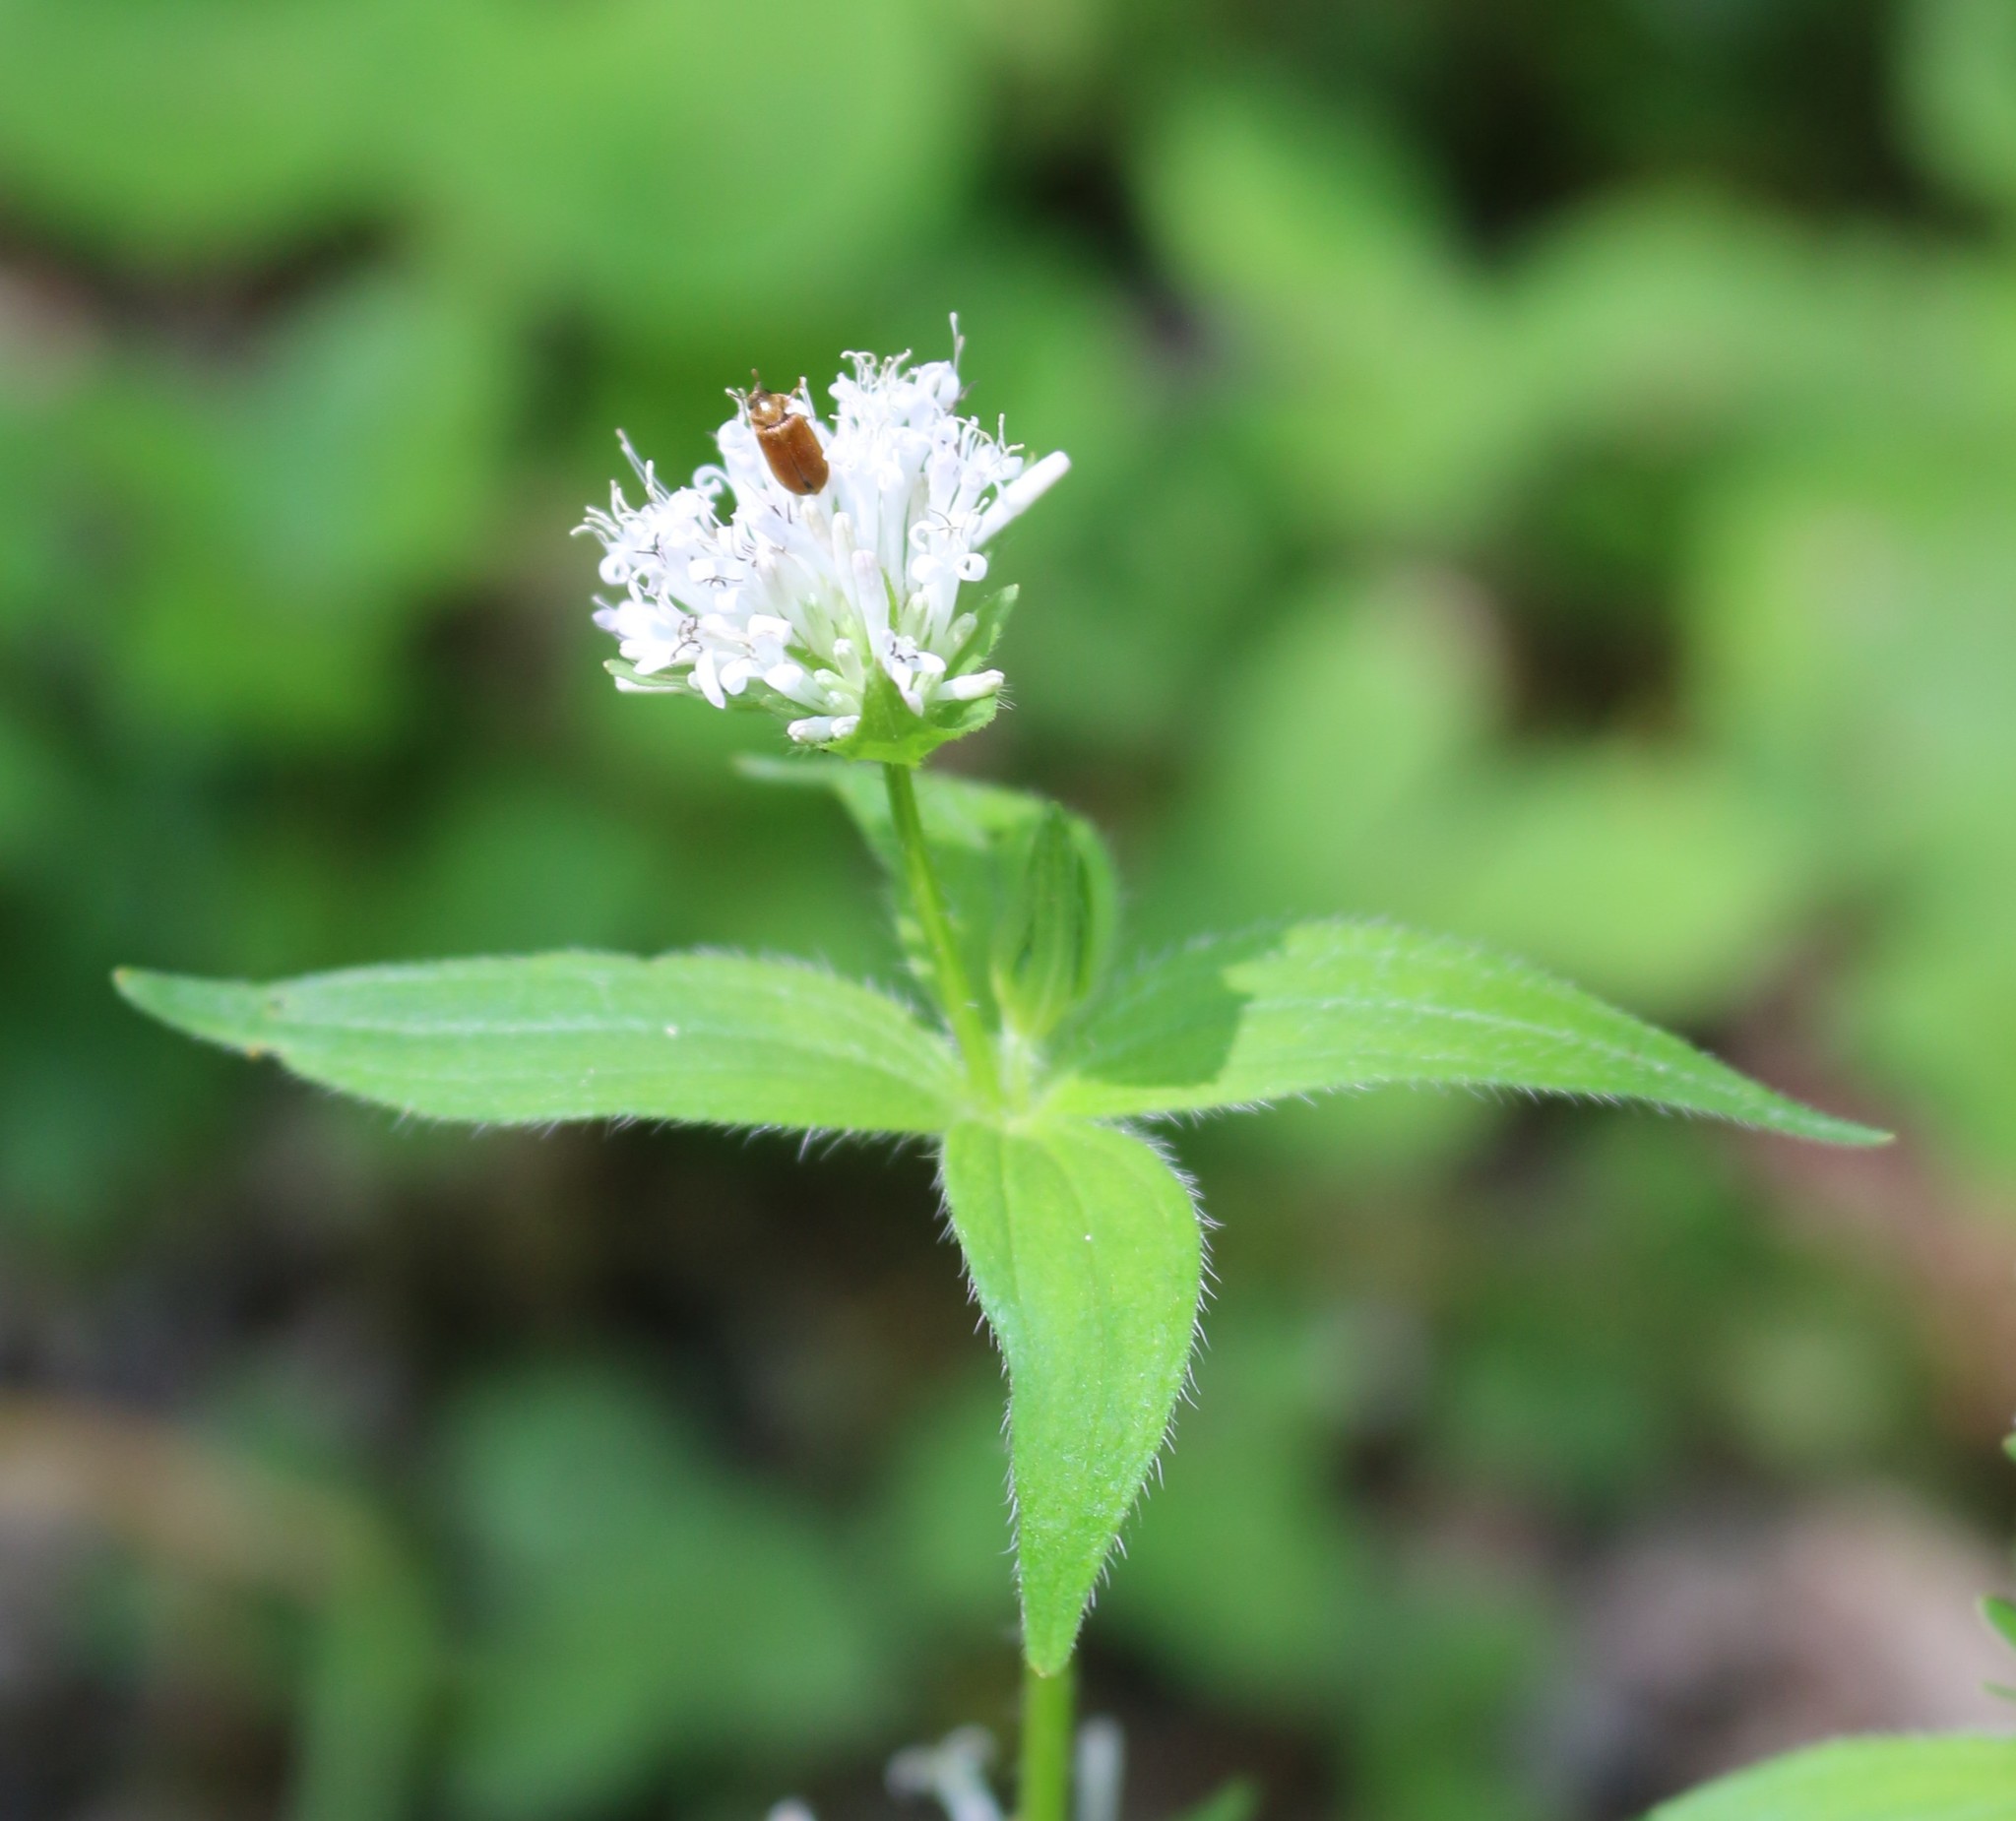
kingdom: Plantae
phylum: Tracheophyta
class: Magnoliopsida
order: Gentianales
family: Rubiaceae
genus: Asperula
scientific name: Asperula taurina
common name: Pink woodruff
